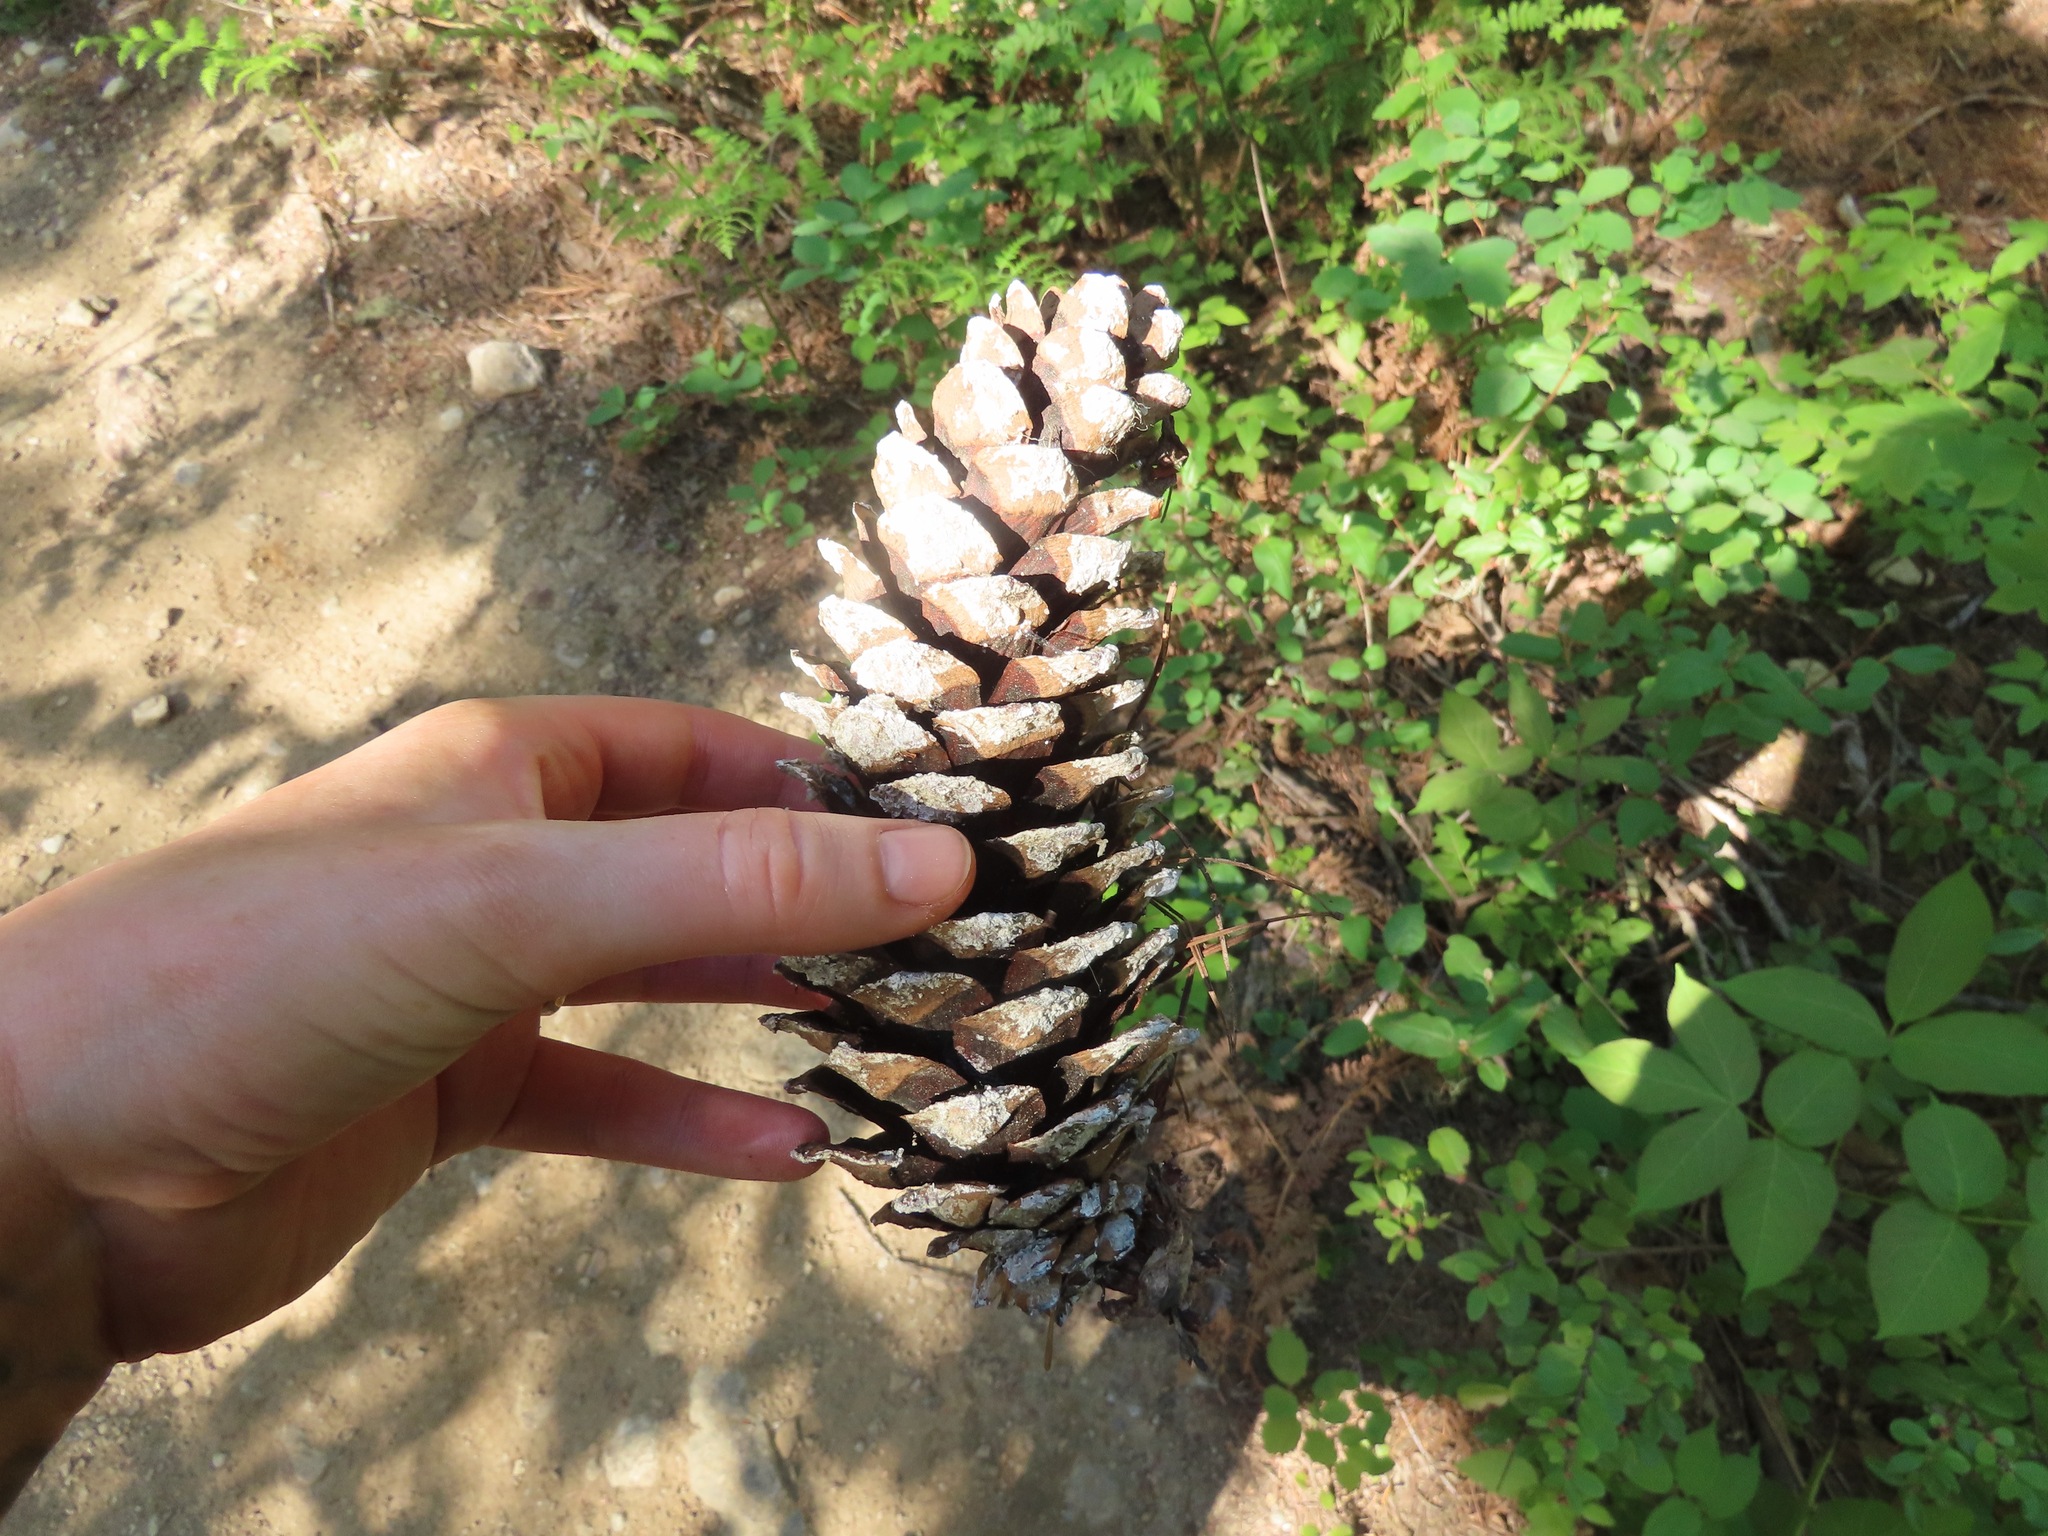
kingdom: Plantae
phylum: Tracheophyta
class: Pinopsida
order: Pinales
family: Pinaceae
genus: Pinus
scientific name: Pinus monticola
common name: Western white pine
